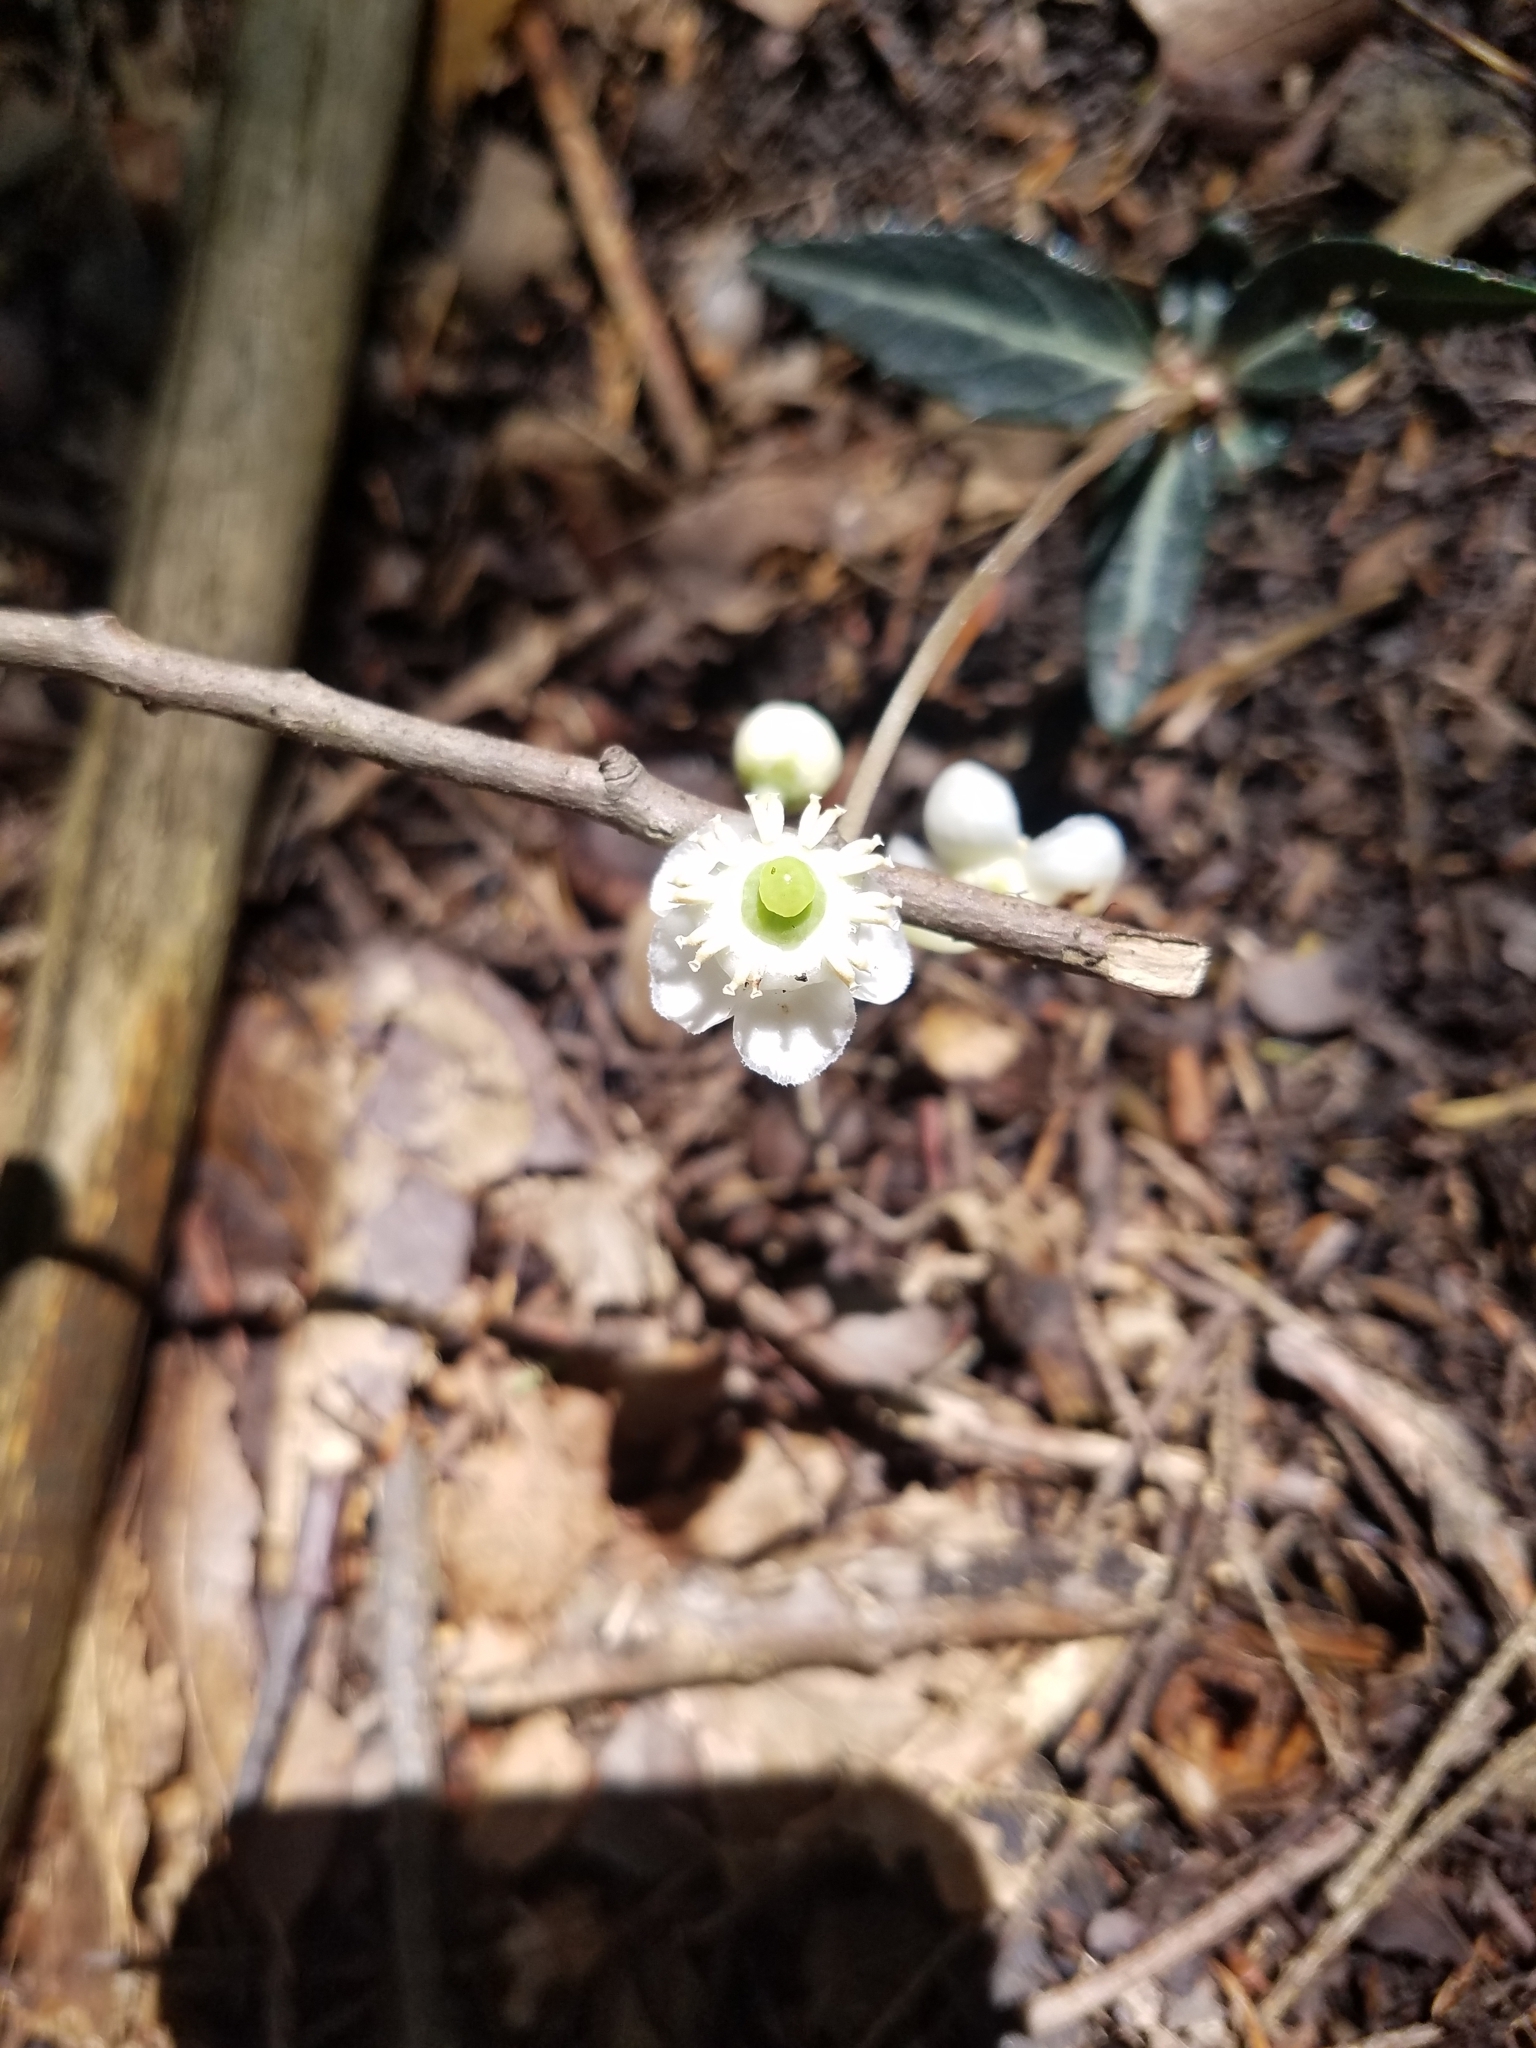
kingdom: Plantae
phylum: Tracheophyta
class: Magnoliopsida
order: Ericales
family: Ericaceae
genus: Chimaphila
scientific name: Chimaphila maculata
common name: Spotted pipsissewa
